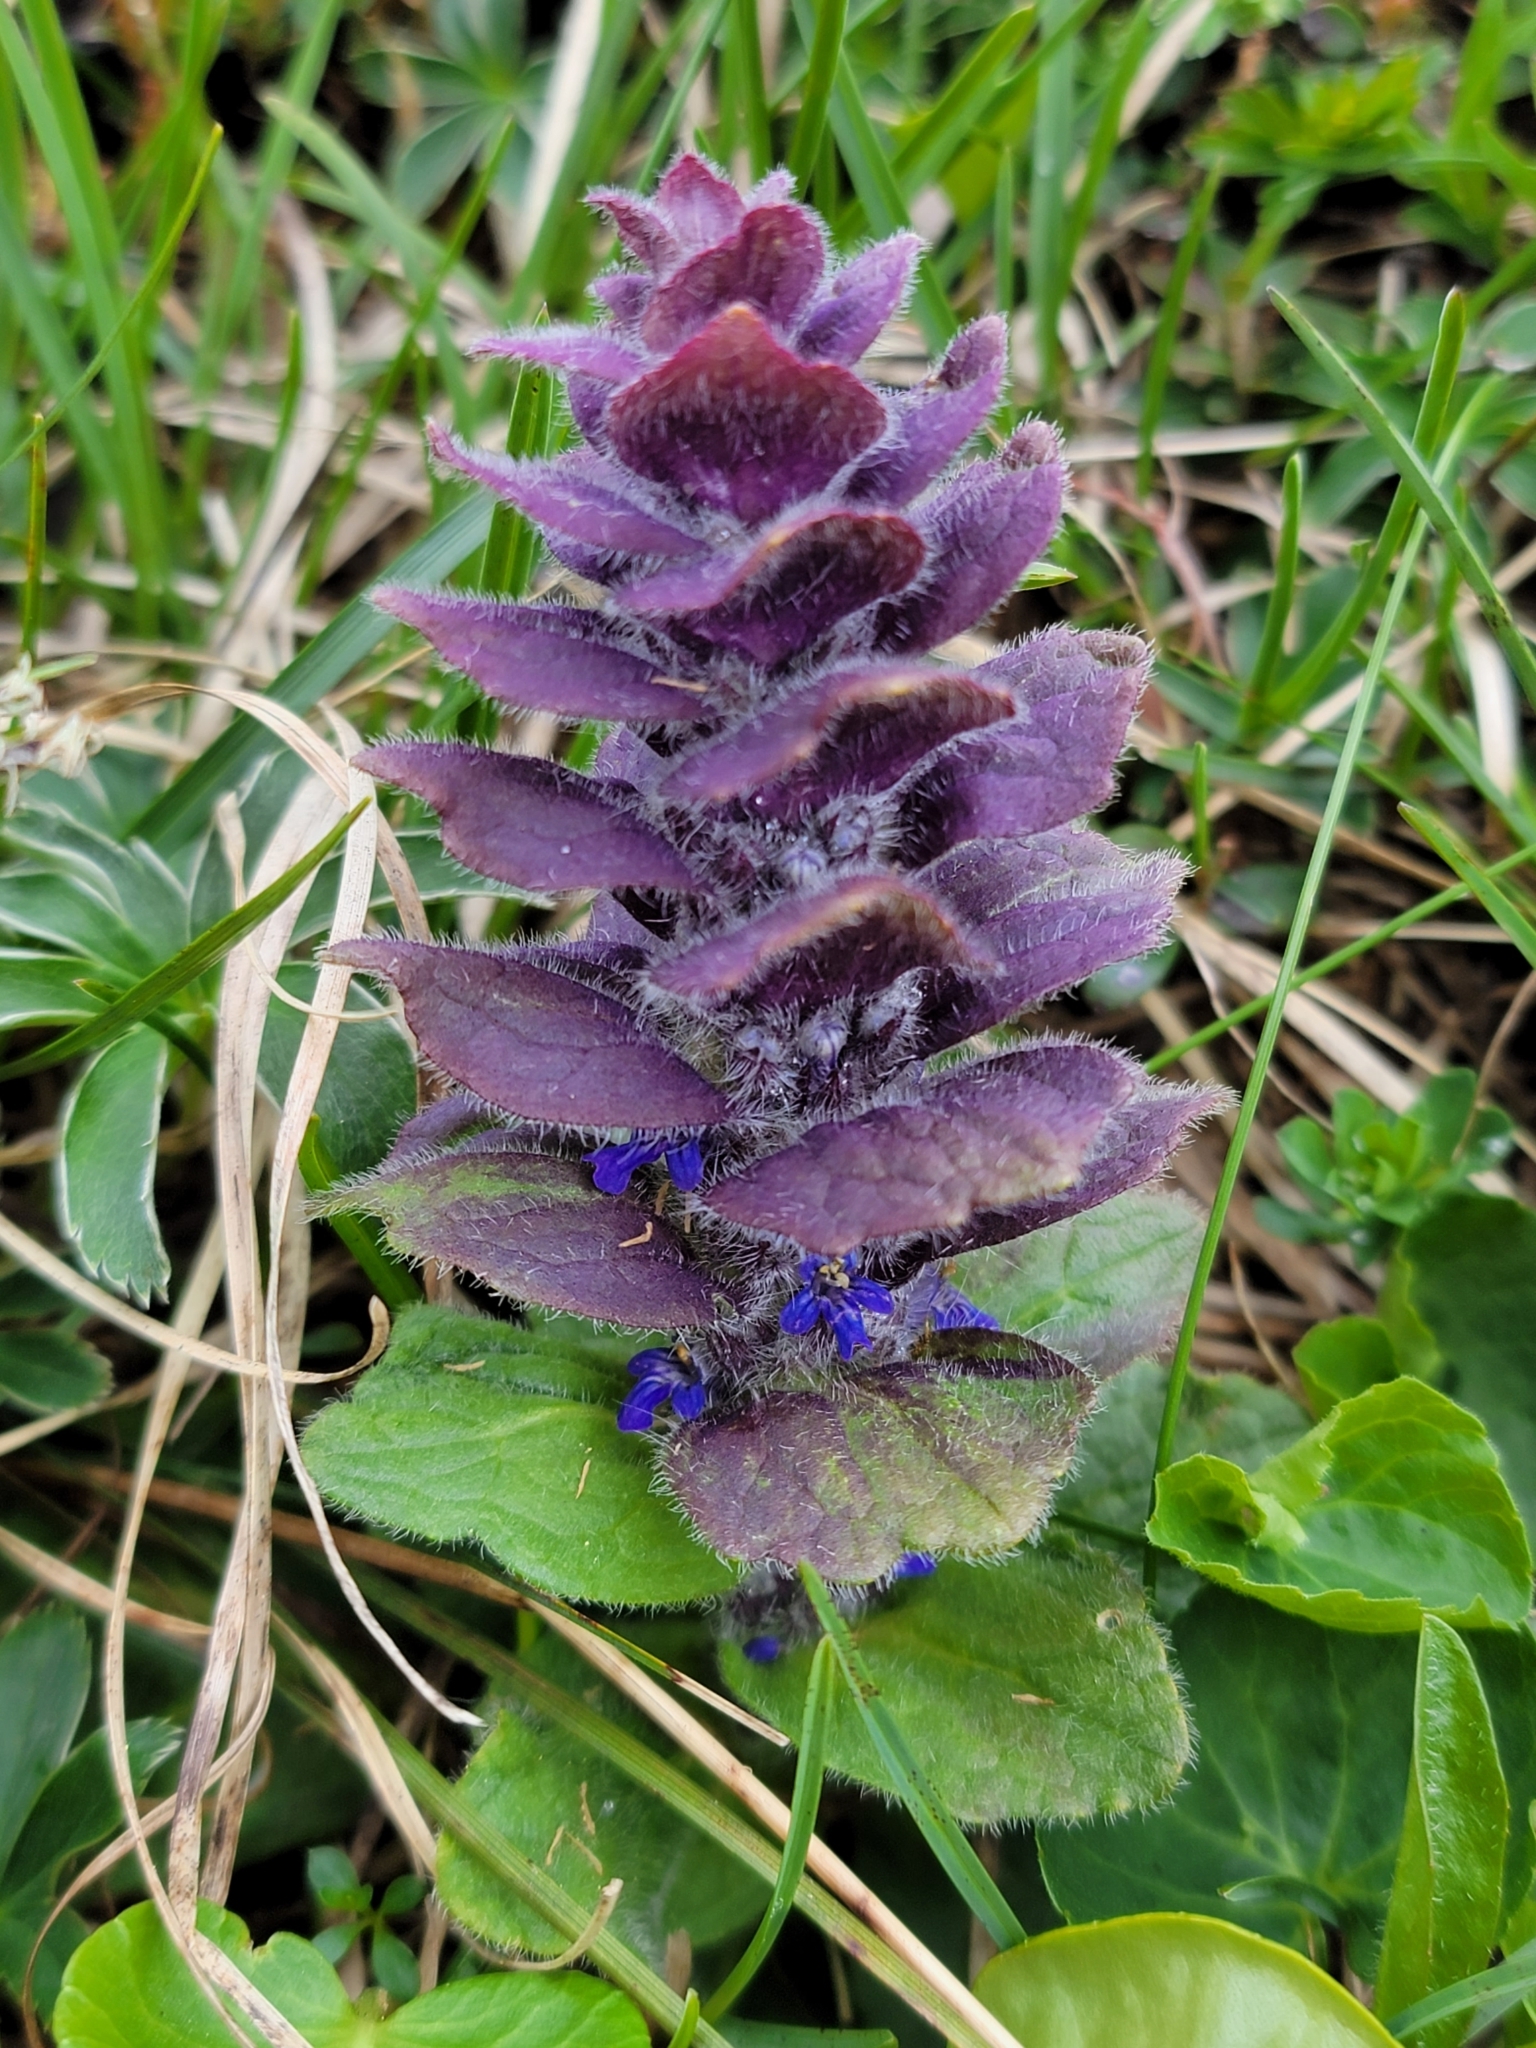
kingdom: Plantae
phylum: Tracheophyta
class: Magnoliopsida
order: Lamiales
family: Lamiaceae
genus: Ajuga
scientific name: Ajuga pyramidalis
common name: Pyramid bugle
